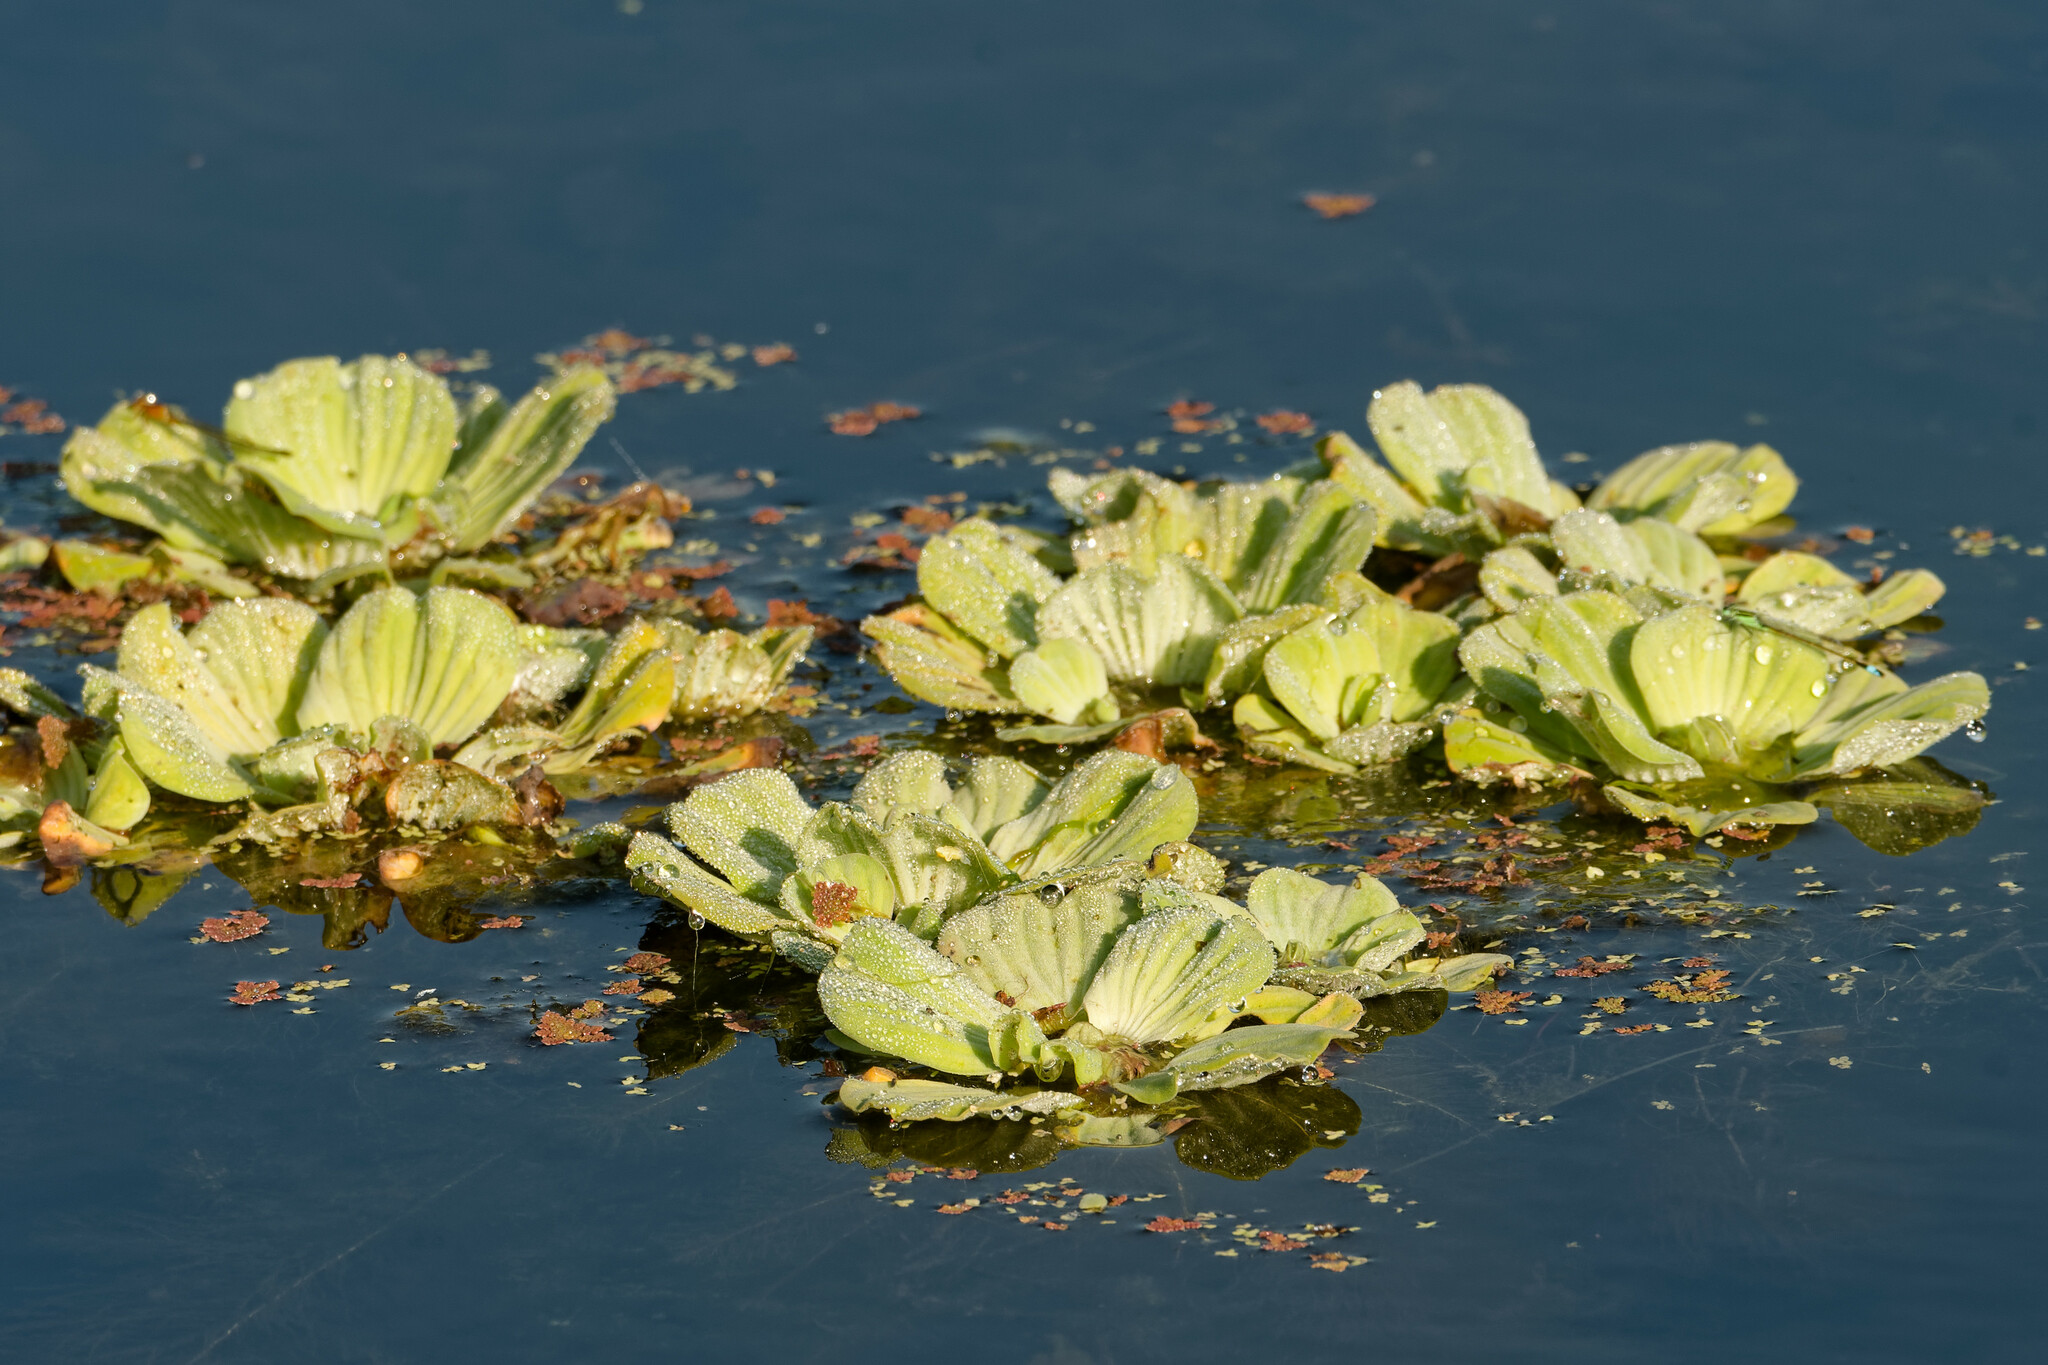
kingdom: Plantae
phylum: Tracheophyta
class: Liliopsida
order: Alismatales
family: Araceae
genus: Pistia
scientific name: Pistia stratiotes
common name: Water lettuce
